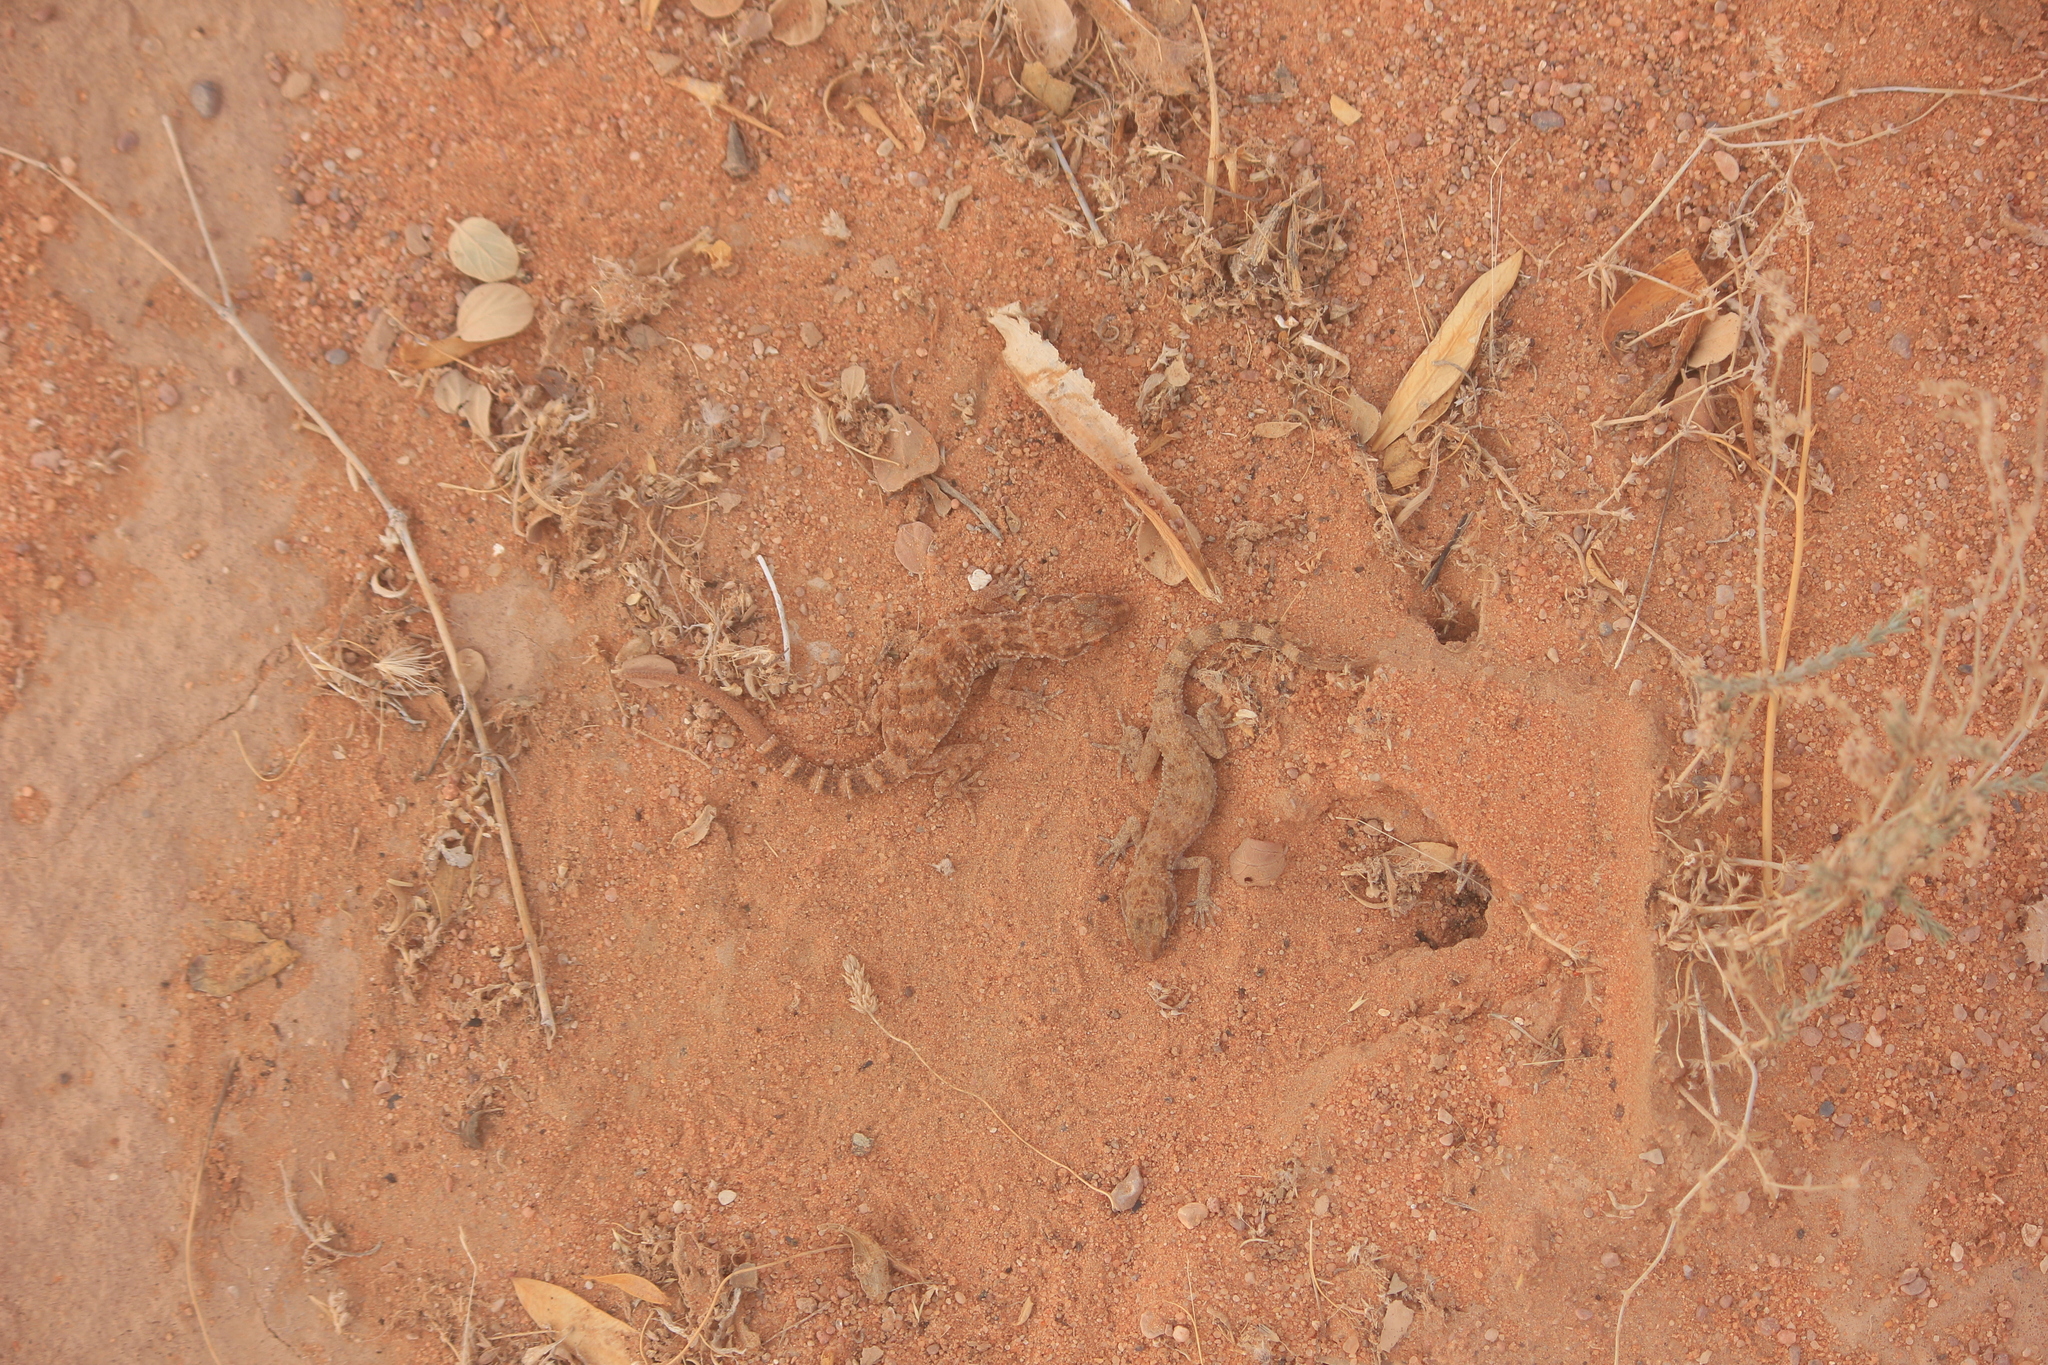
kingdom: Animalia
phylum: Chordata
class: Squamata
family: Gekkonidae
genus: Bunopus
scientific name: Bunopus tuberculatus
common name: Southern tuberculated gecko
